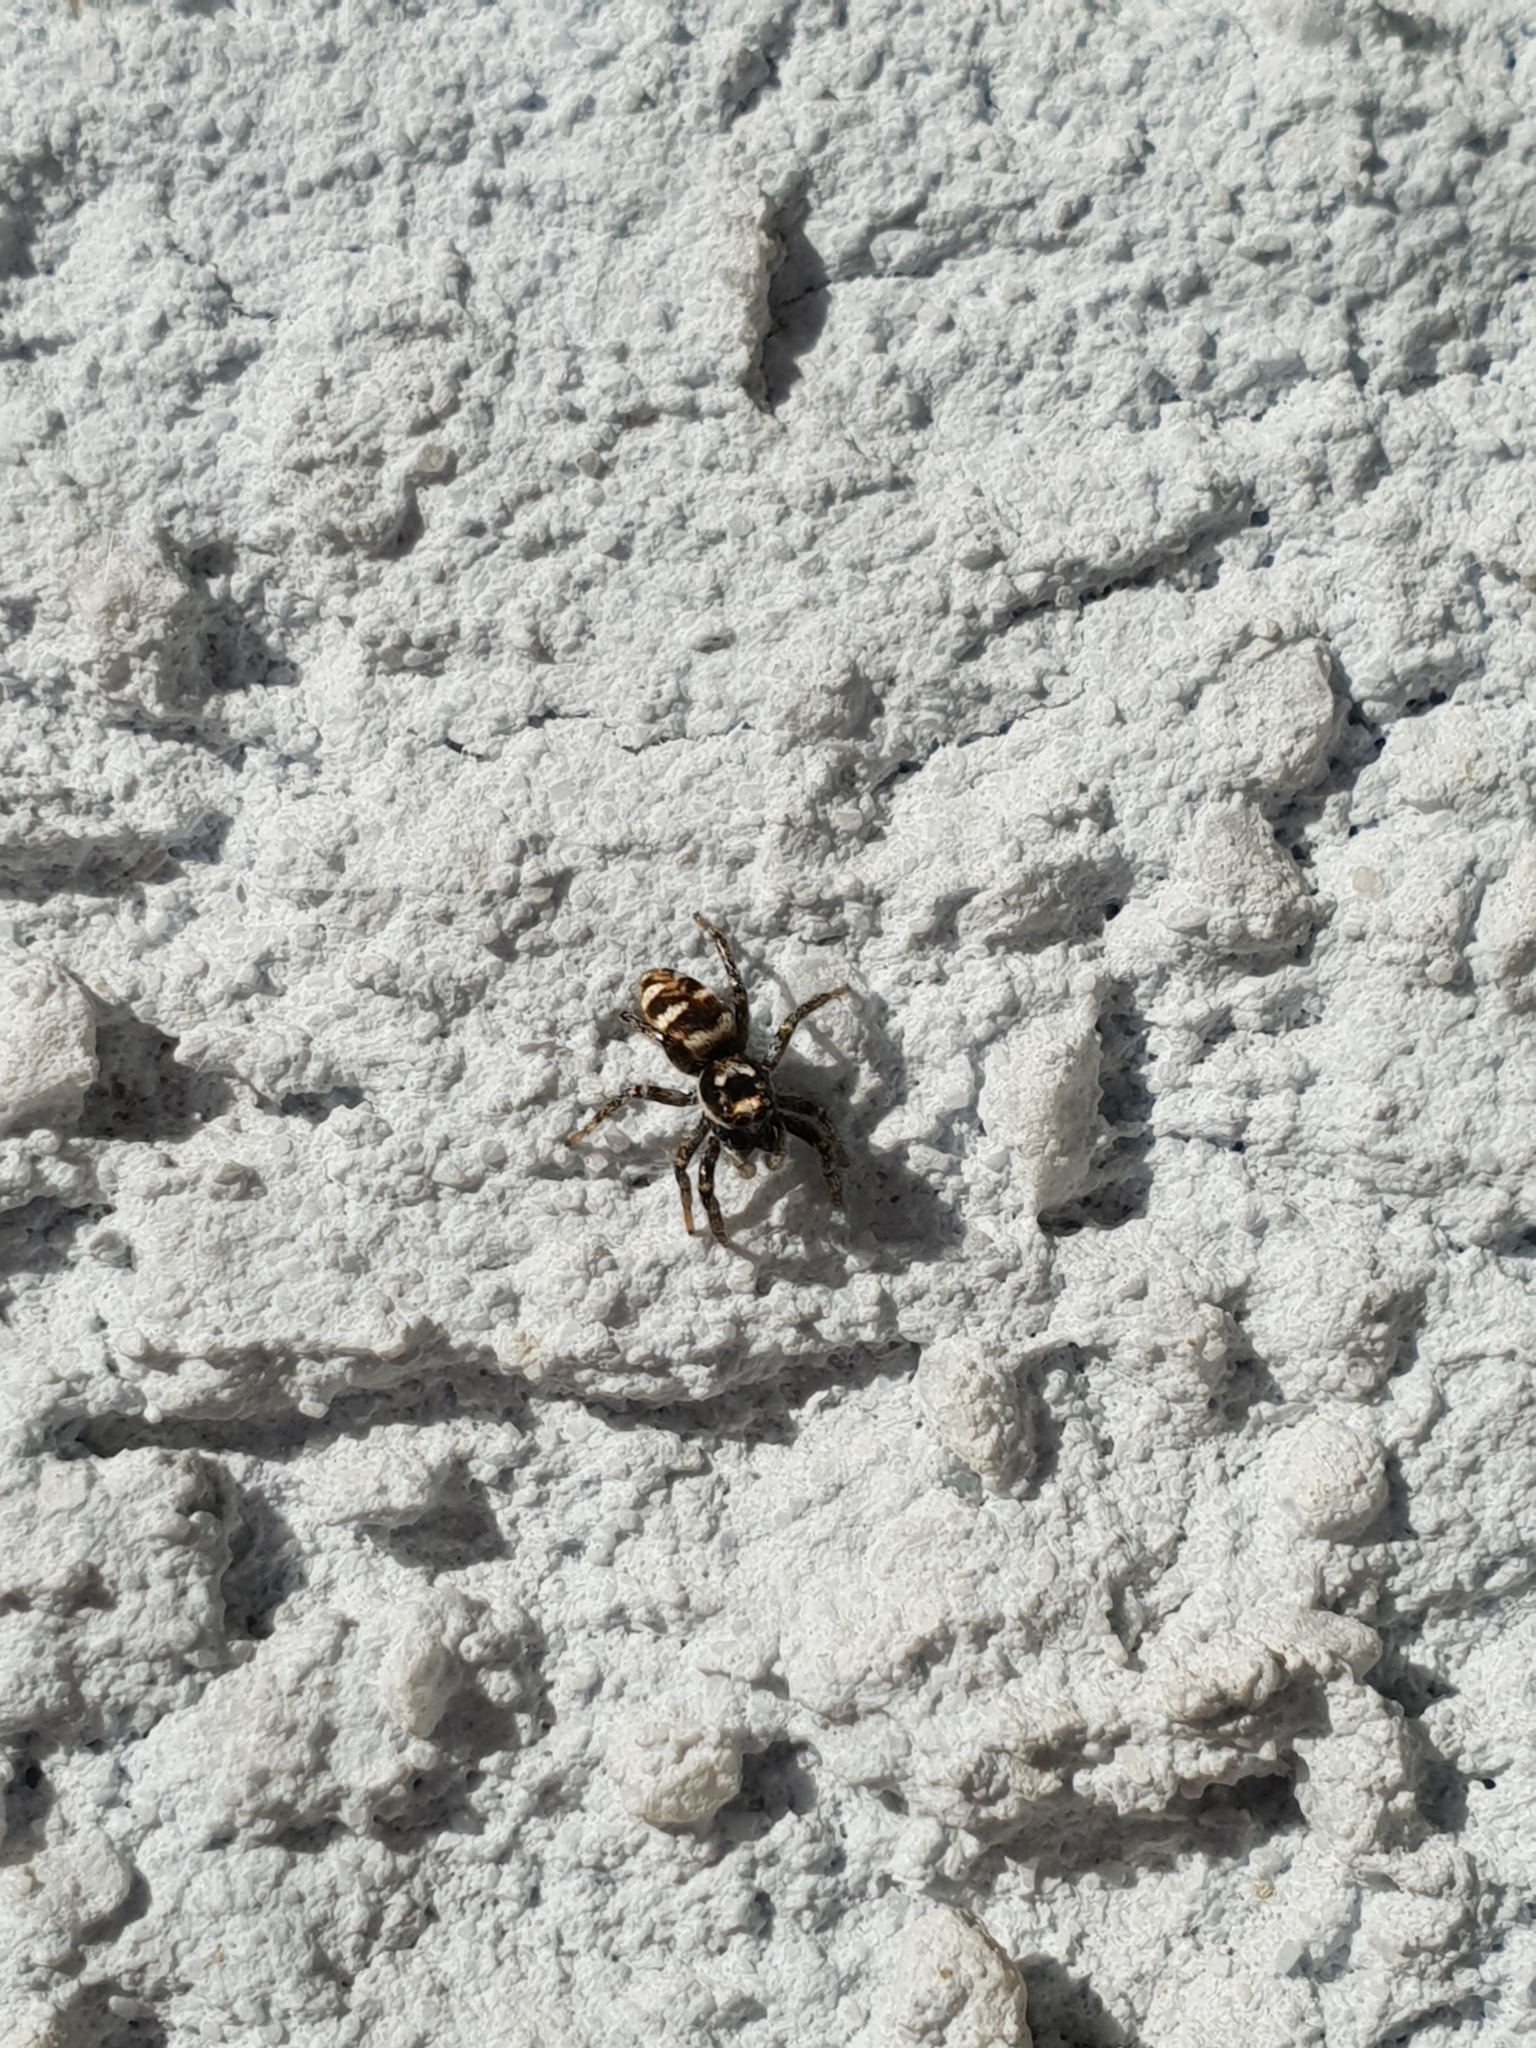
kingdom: Animalia
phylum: Arthropoda
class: Arachnida
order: Araneae
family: Salticidae
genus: Salticus
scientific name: Salticus scenicus
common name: Zebra jumper
